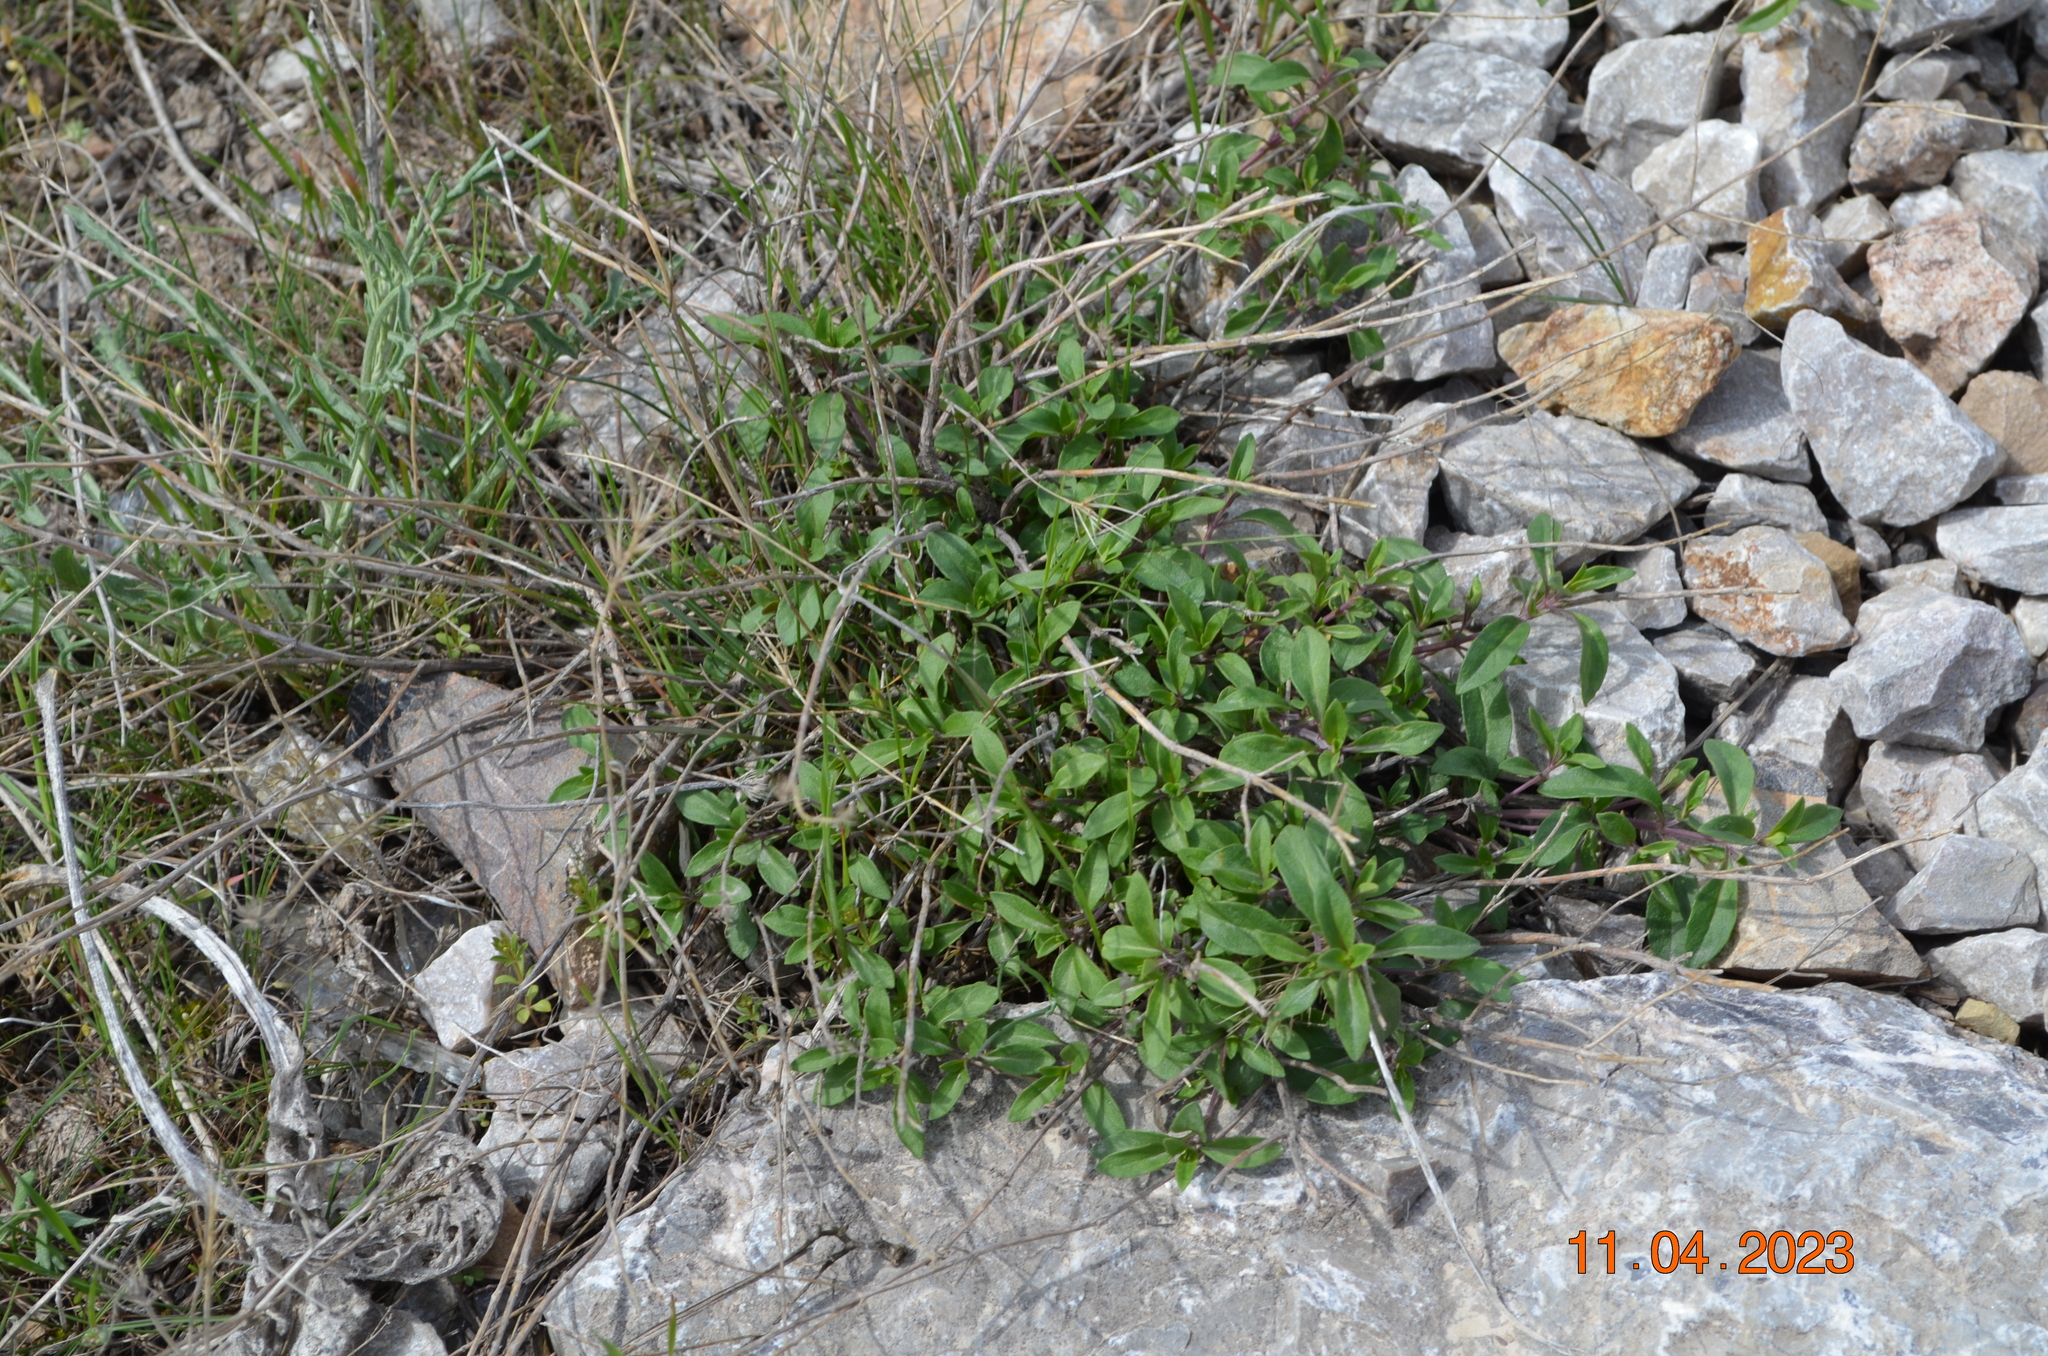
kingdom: Plantae
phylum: Tracheophyta
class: Magnoliopsida
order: Lamiales
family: Lamiaceae
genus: Ziziphora
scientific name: Ziziphora clinopodioides
